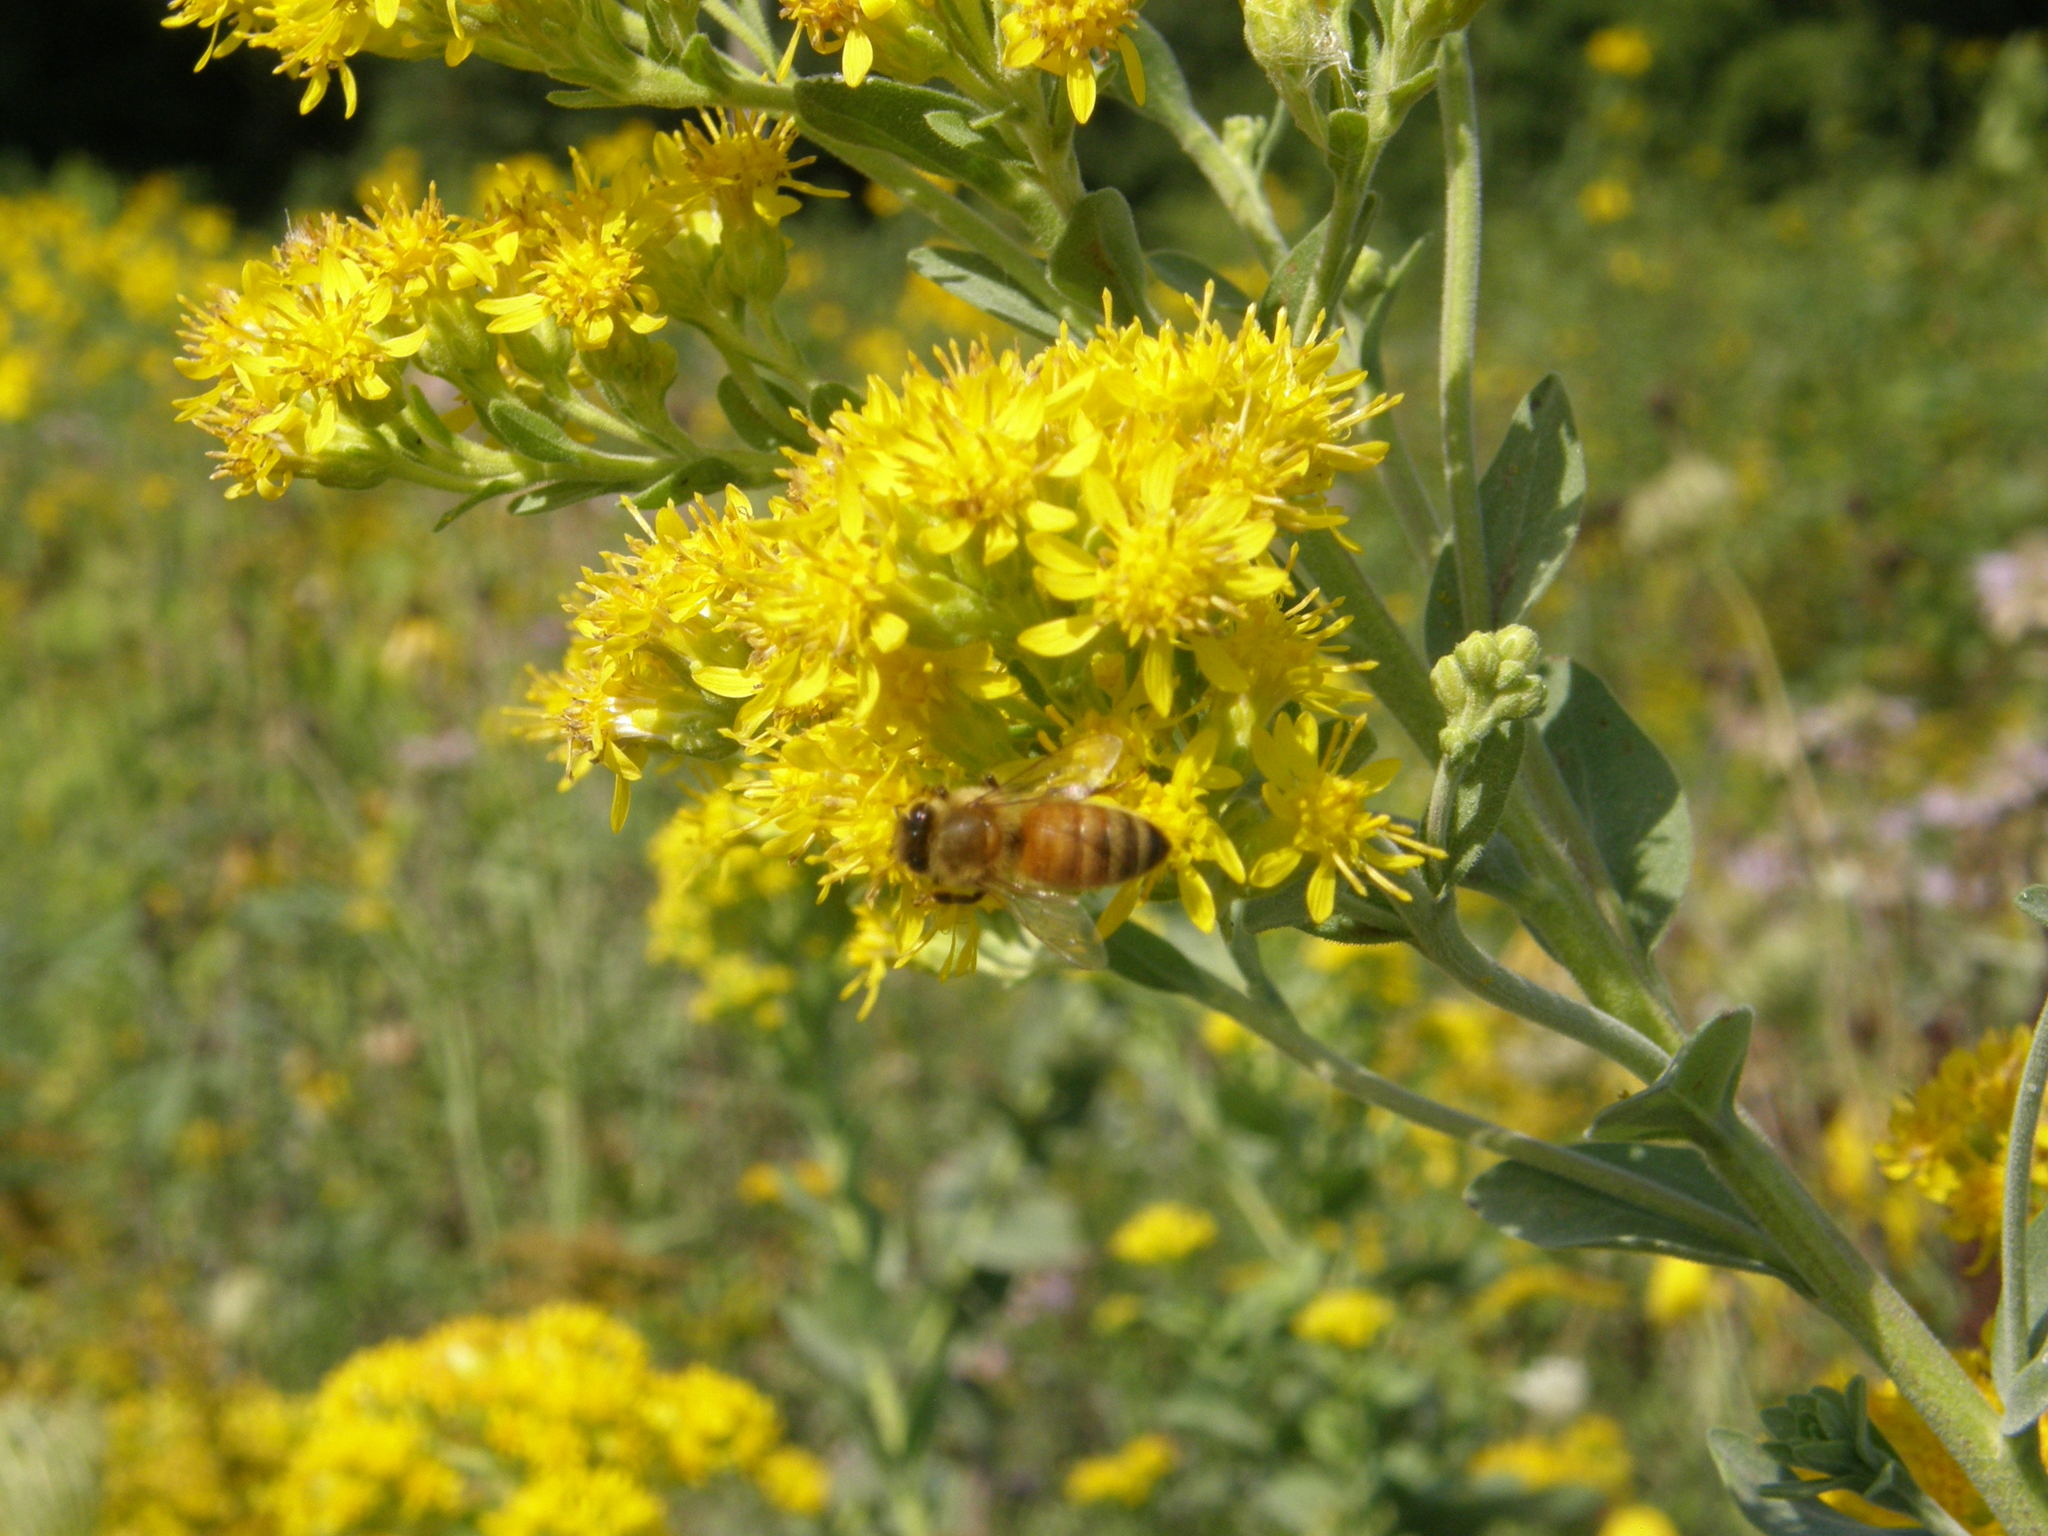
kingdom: Animalia
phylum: Arthropoda
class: Insecta
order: Hymenoptera
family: Apidae
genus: Apis
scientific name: Apis mellifera
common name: Honey bee
